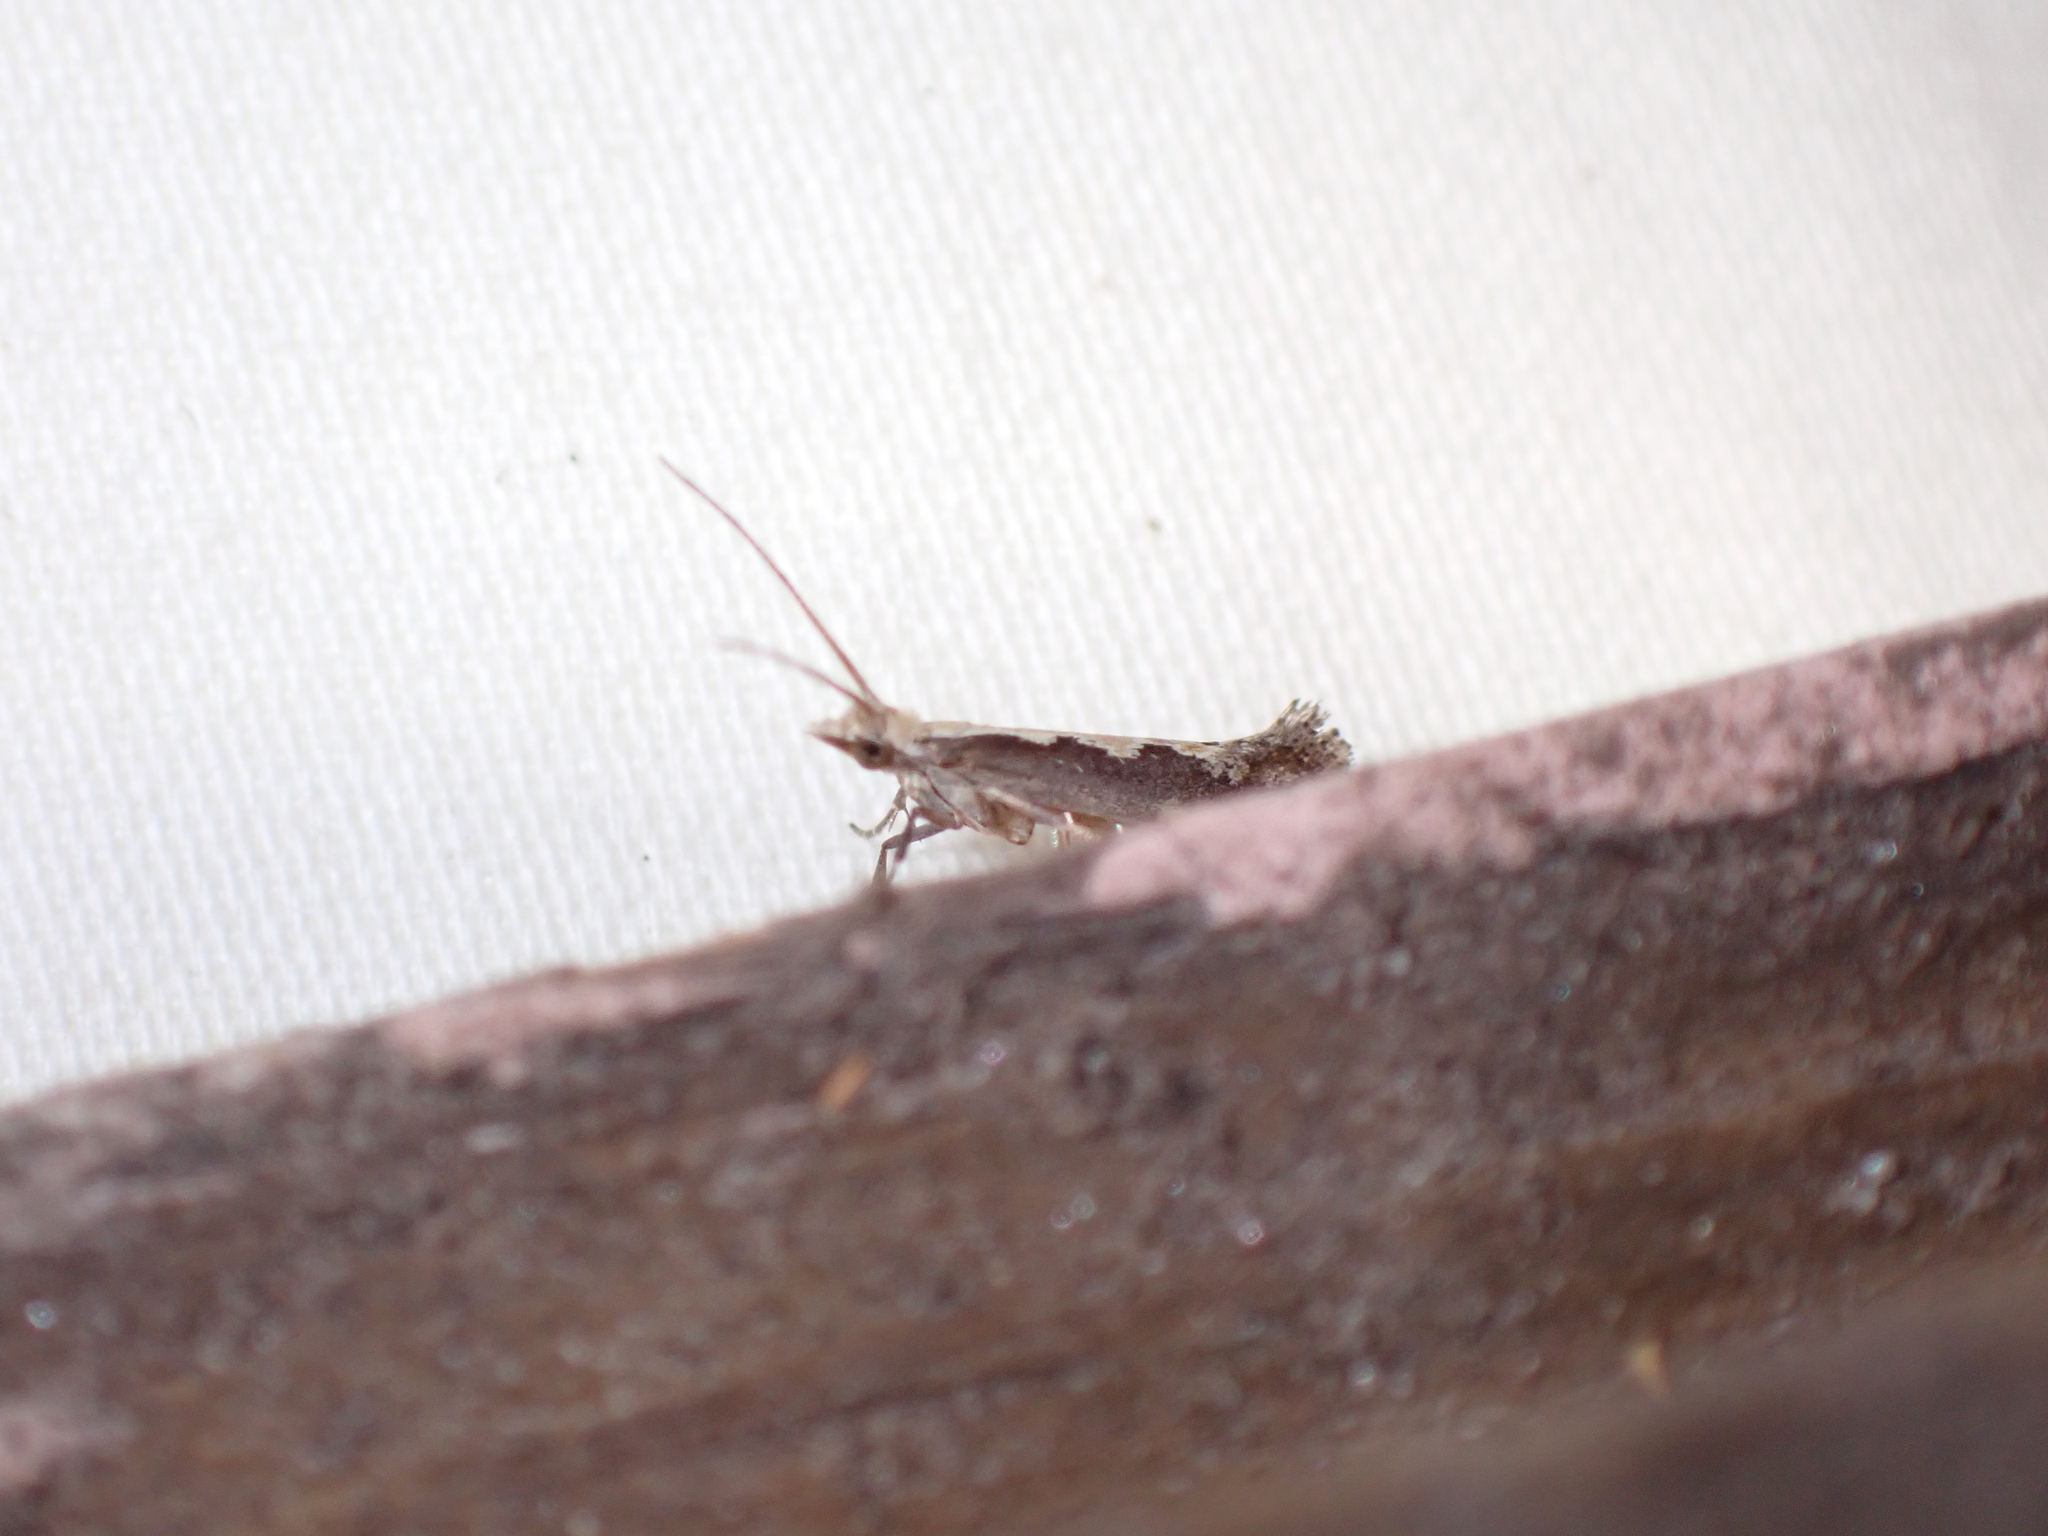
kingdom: Animalia
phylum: Arthropoda
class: Insecta
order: Lepidoptera
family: Plutellidae
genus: Plutella
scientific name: Plutella xylostella
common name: Diamond-back moth
